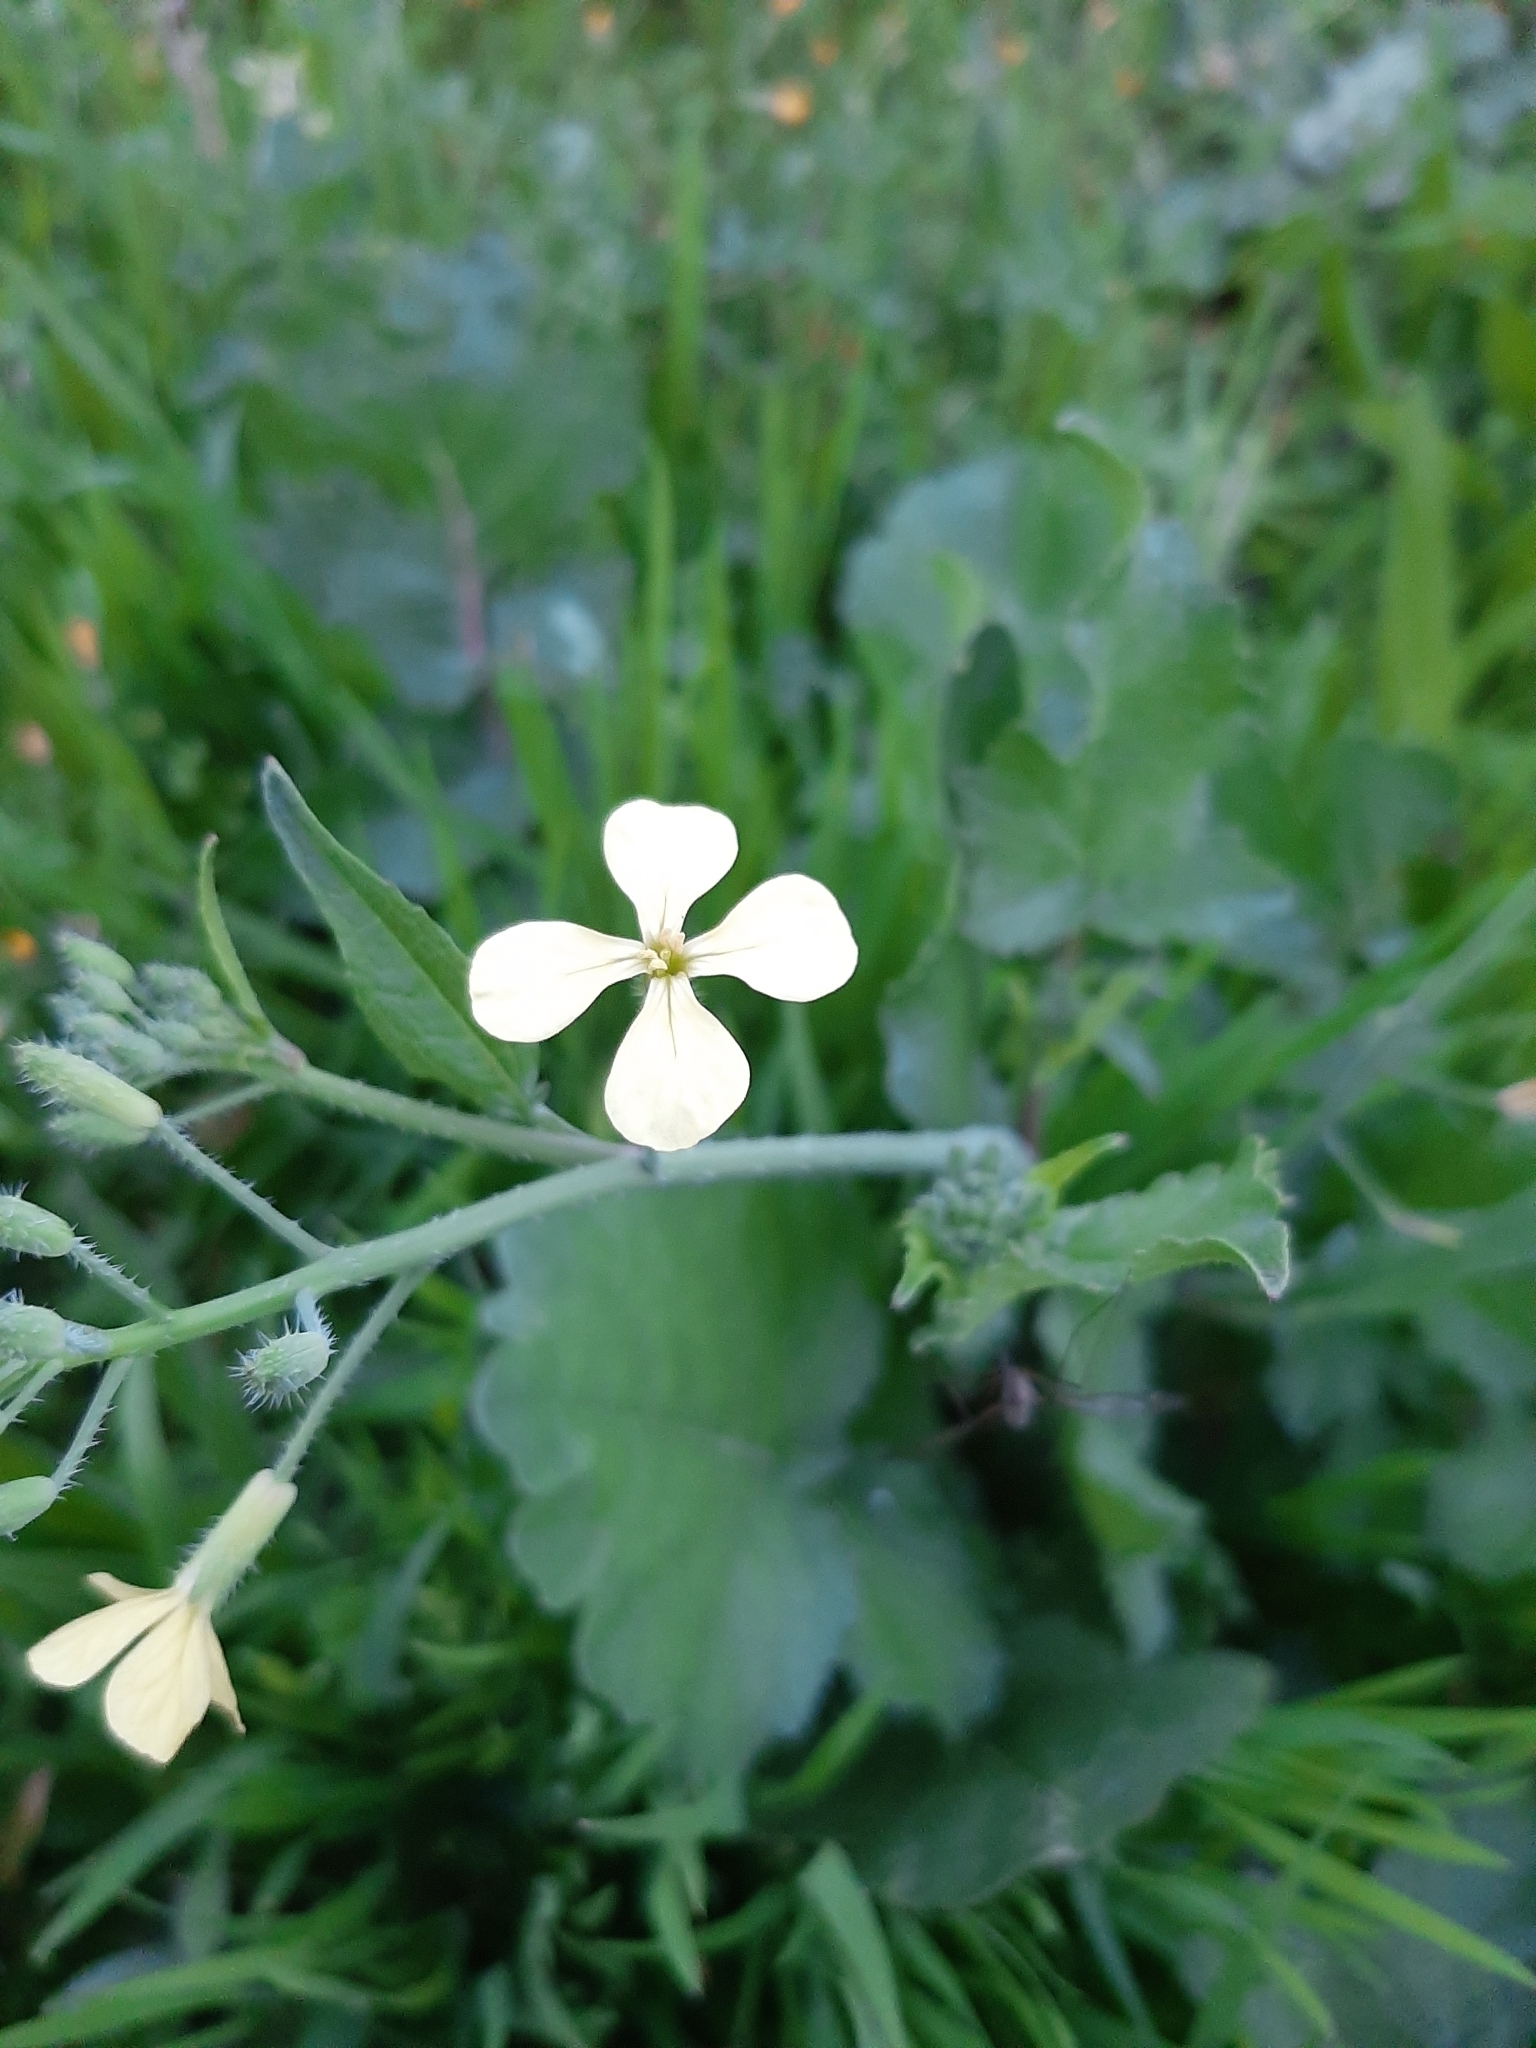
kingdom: Plantae
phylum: Tracheophyta
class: Magnoliopsida
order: Brassicales
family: Brassicaceae
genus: Raphanus
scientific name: Raphanus raphanistrum
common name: Wild radish
